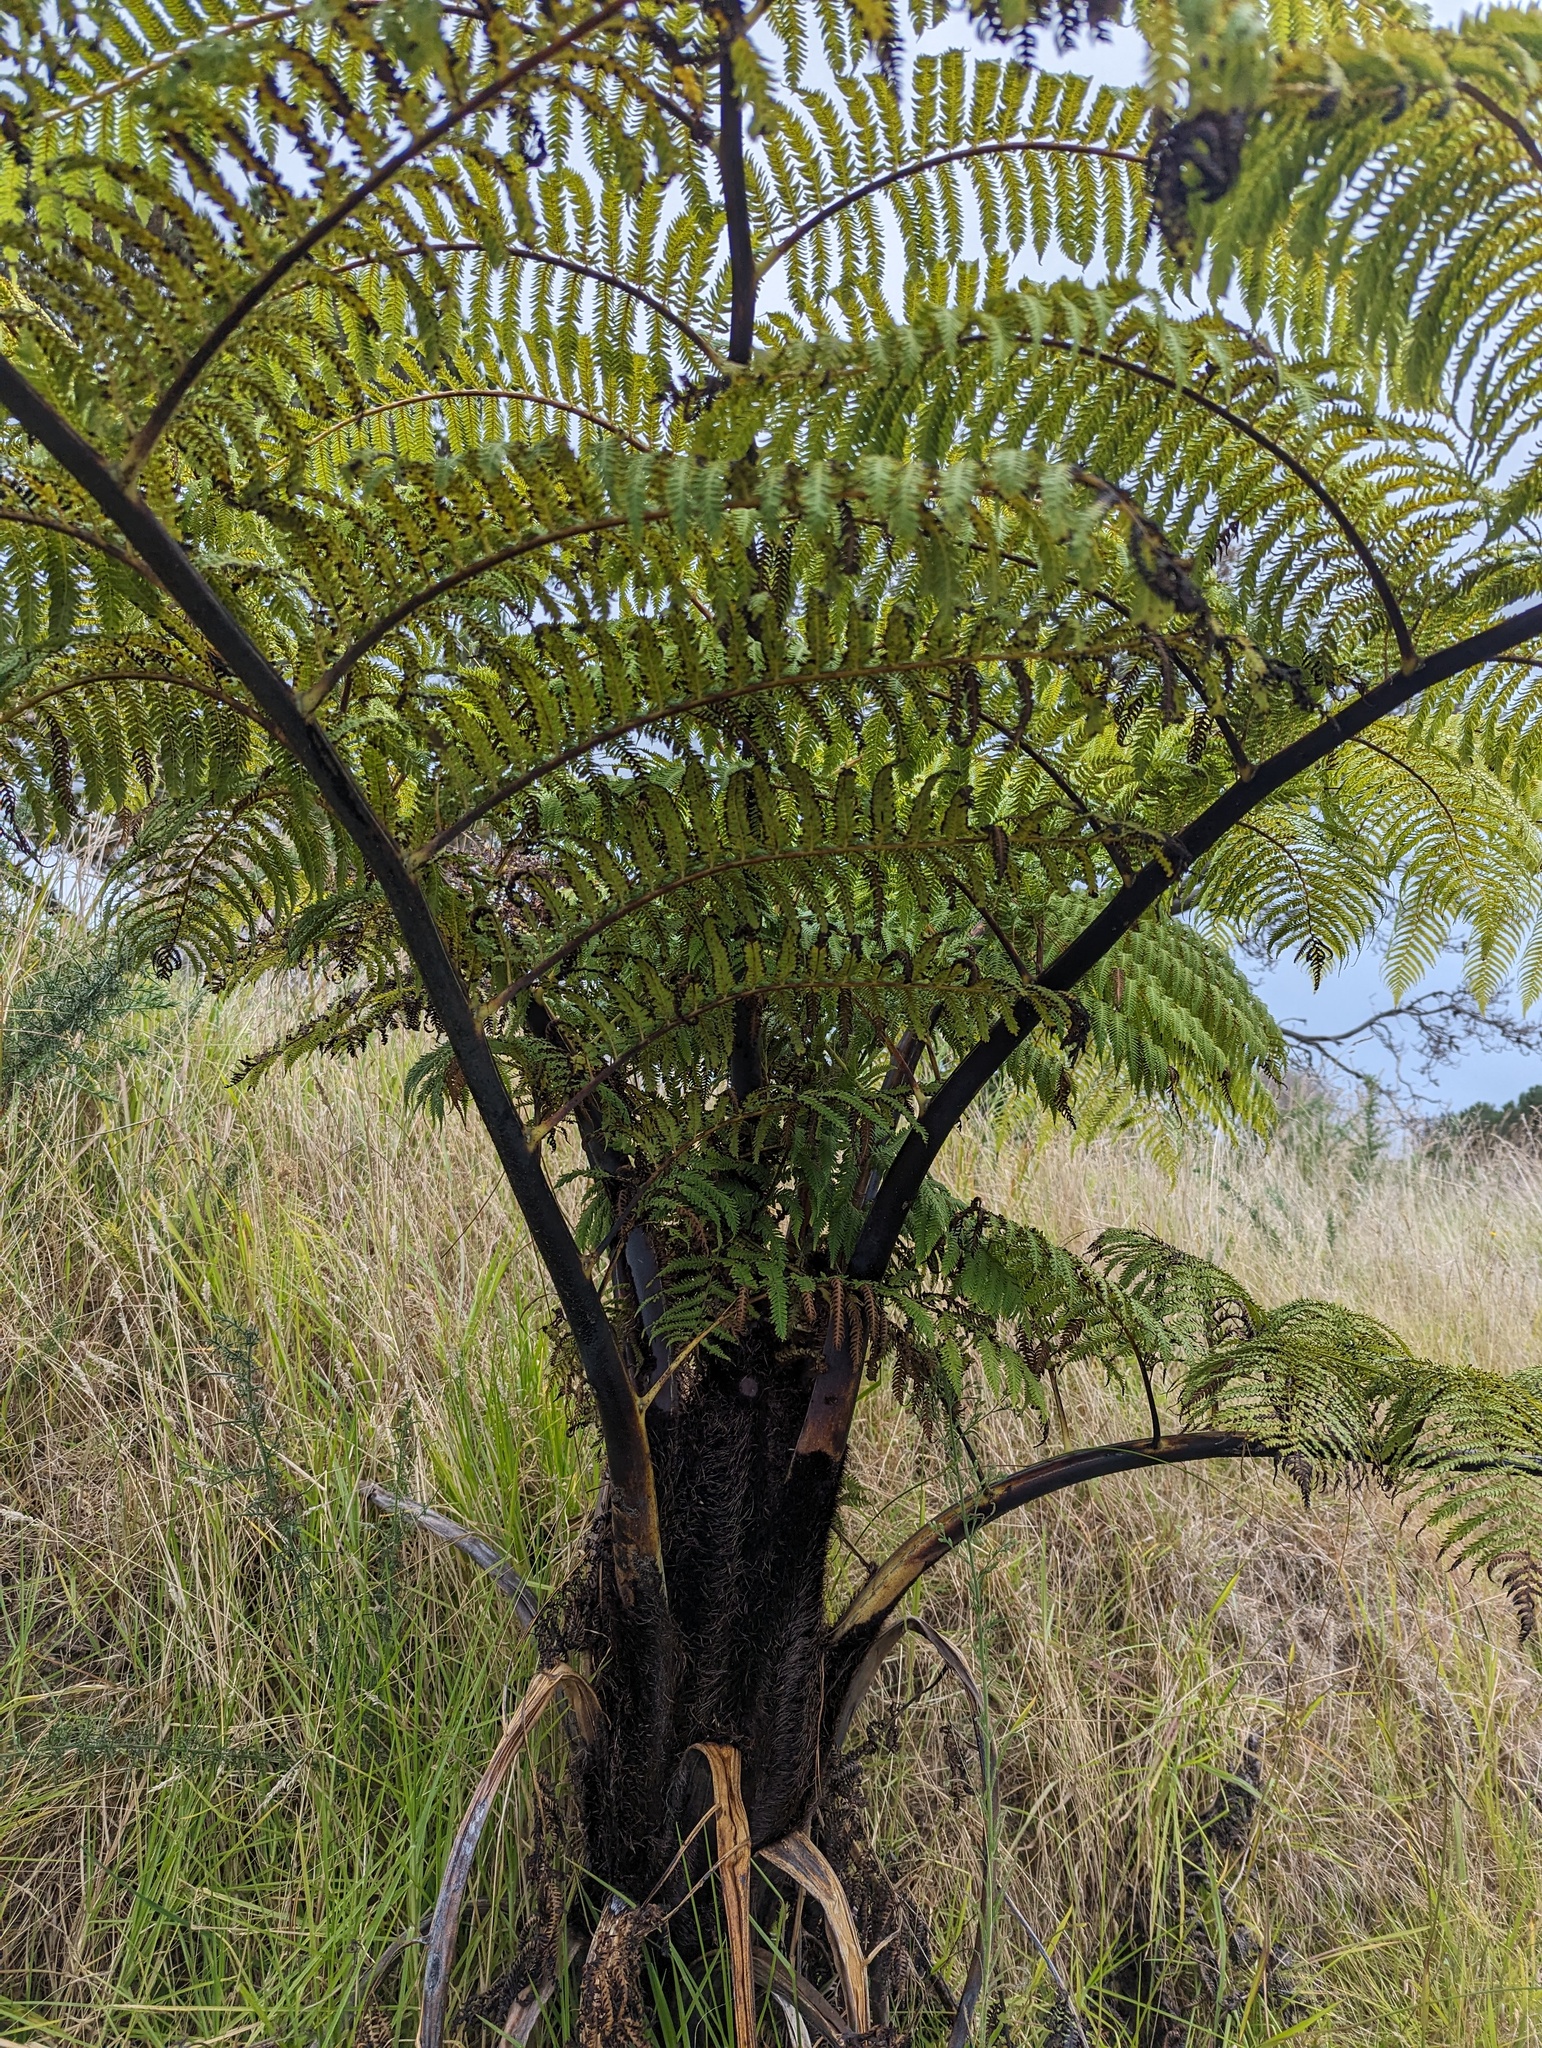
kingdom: Plantae
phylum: Tracheophyta
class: Polypodiopsida
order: Cyatheales
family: Cyatheaceae
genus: Sphaeropteris
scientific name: Sphaeropteris medullaris
